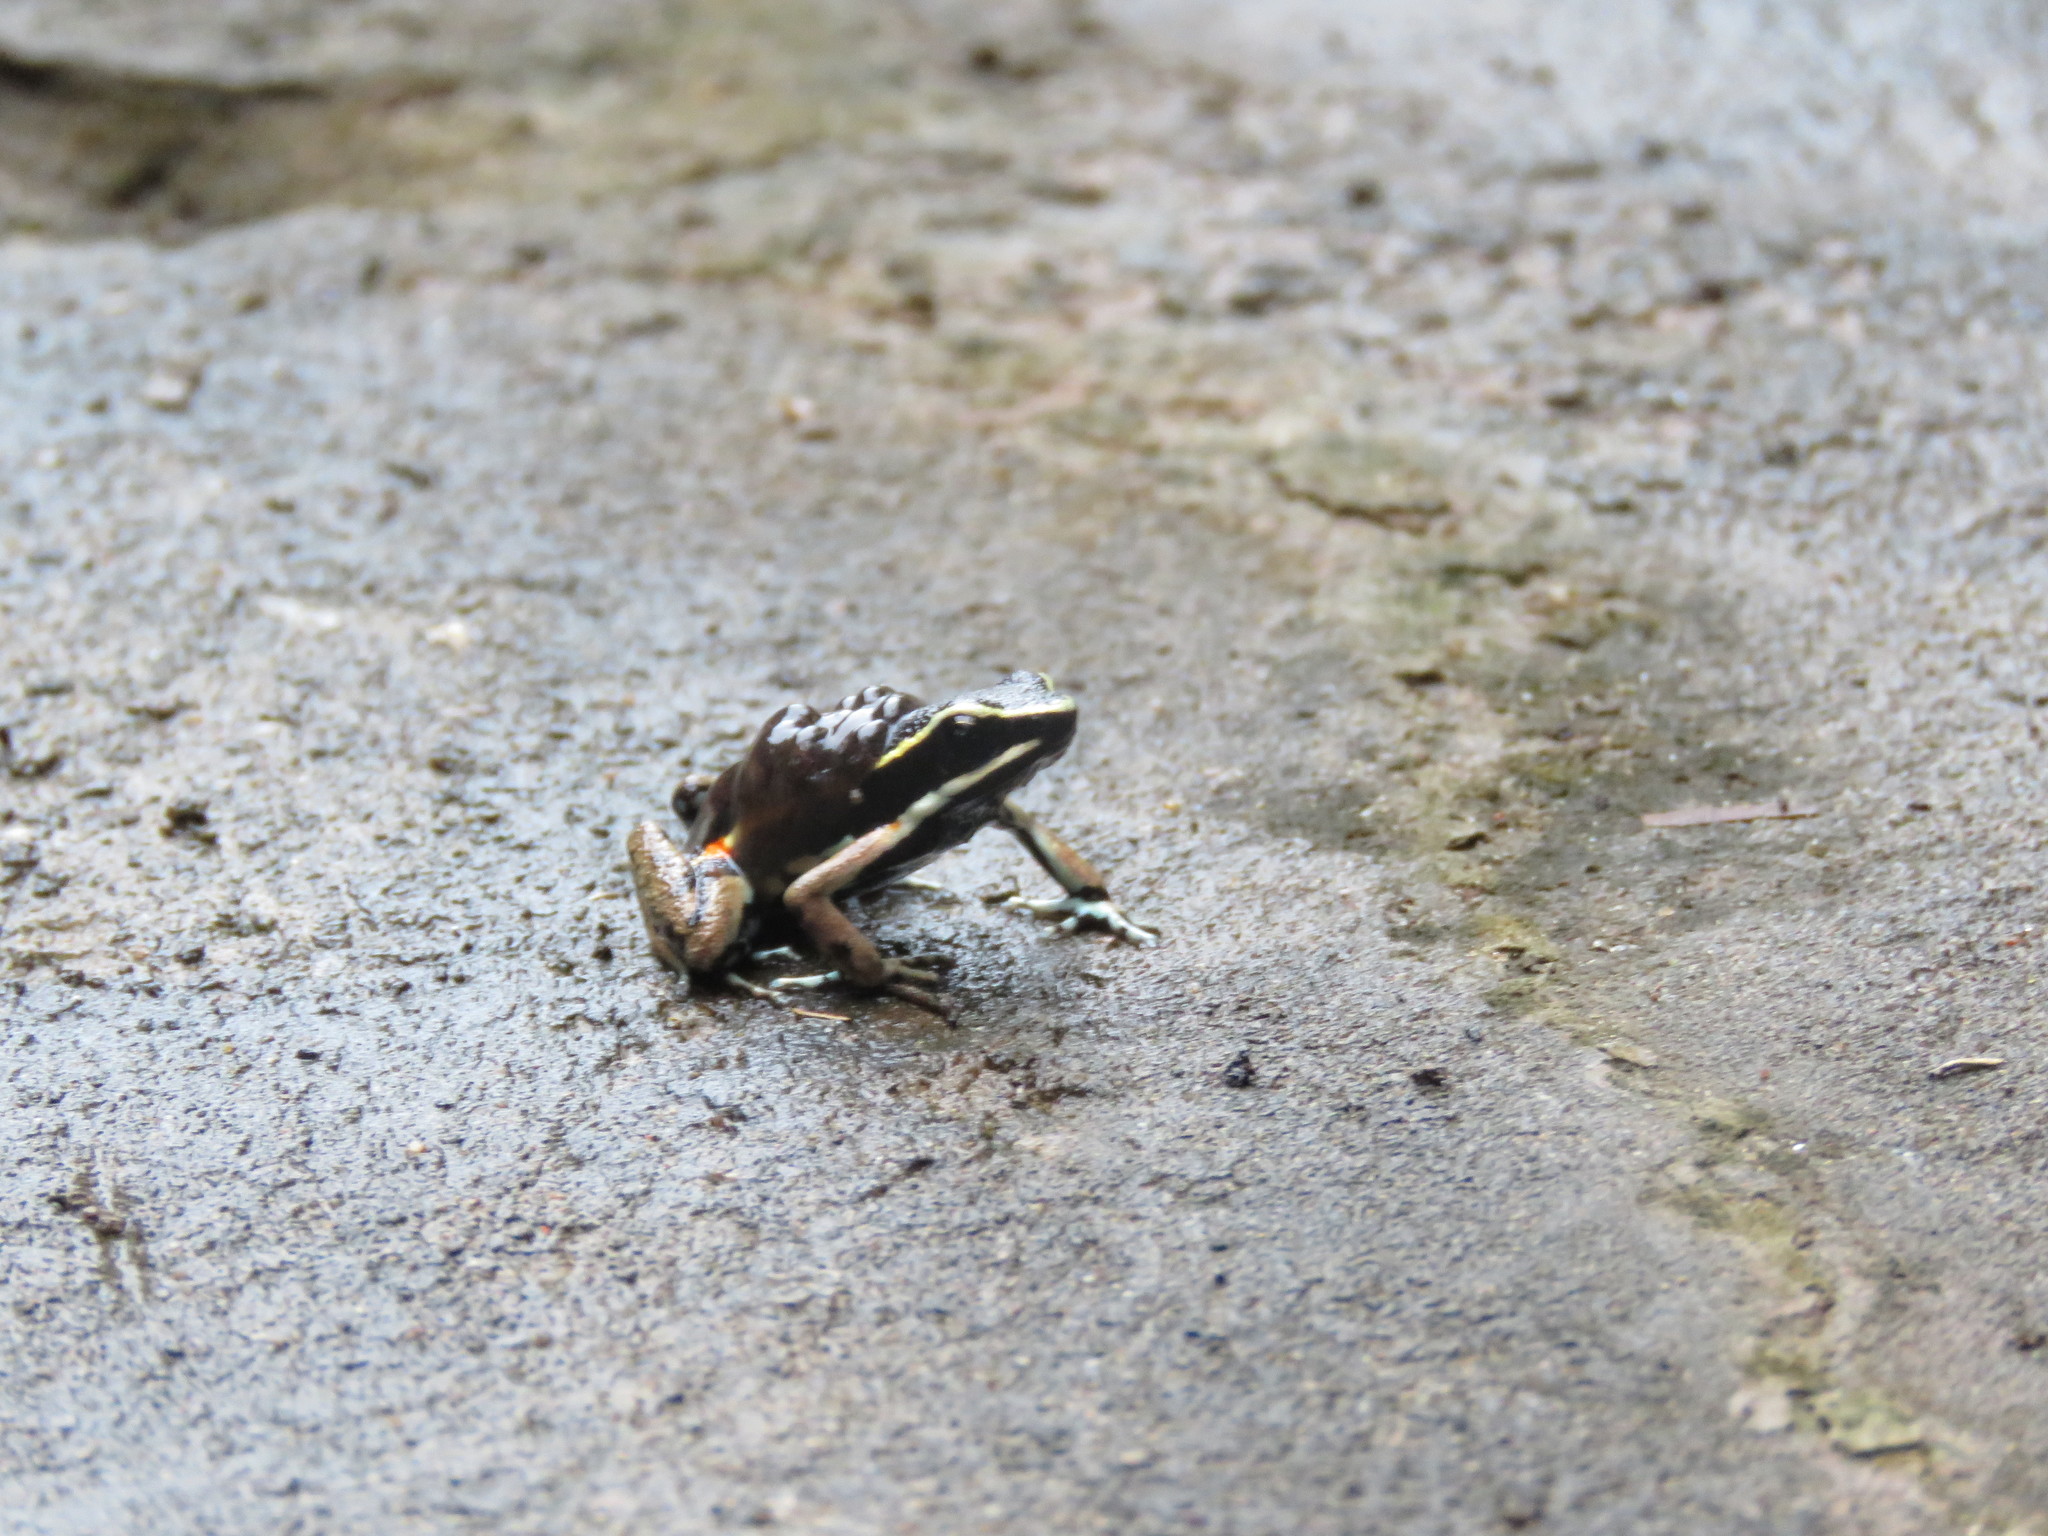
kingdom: Animalia
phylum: Chordata
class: Amphibia
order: Anura
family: Dendrobatidae
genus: Ameerega
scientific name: Ameerega picta
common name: Spot-legged poison frog
